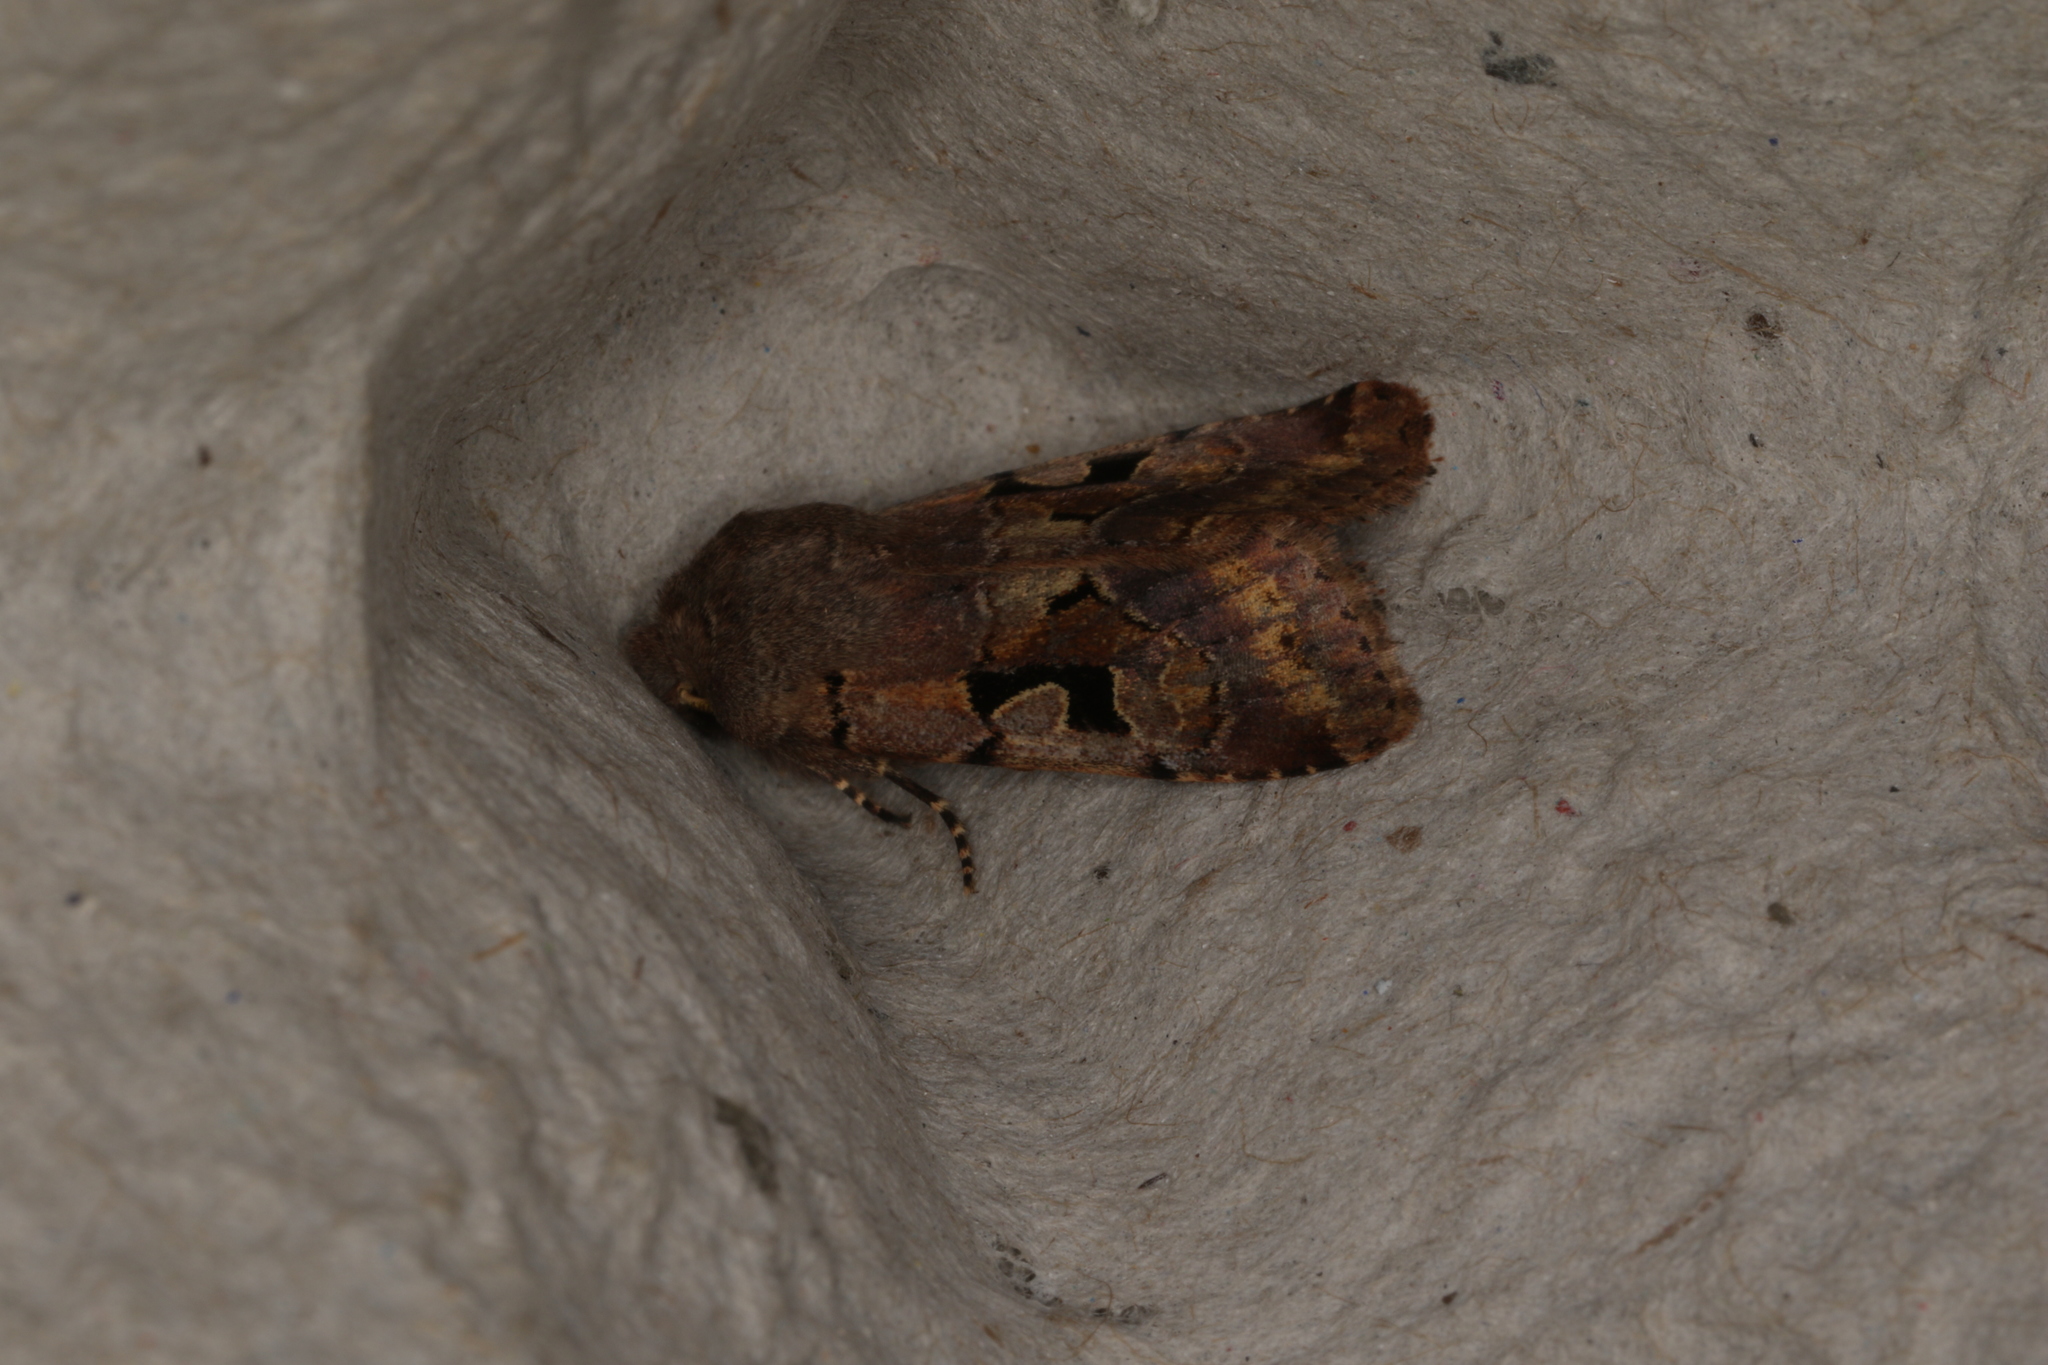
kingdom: Animalia
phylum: Arthropoda
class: Insecta
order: Lepidoptera
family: Noctuidae
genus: Orthosia
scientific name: Orthosia gothica
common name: Hebrew character
